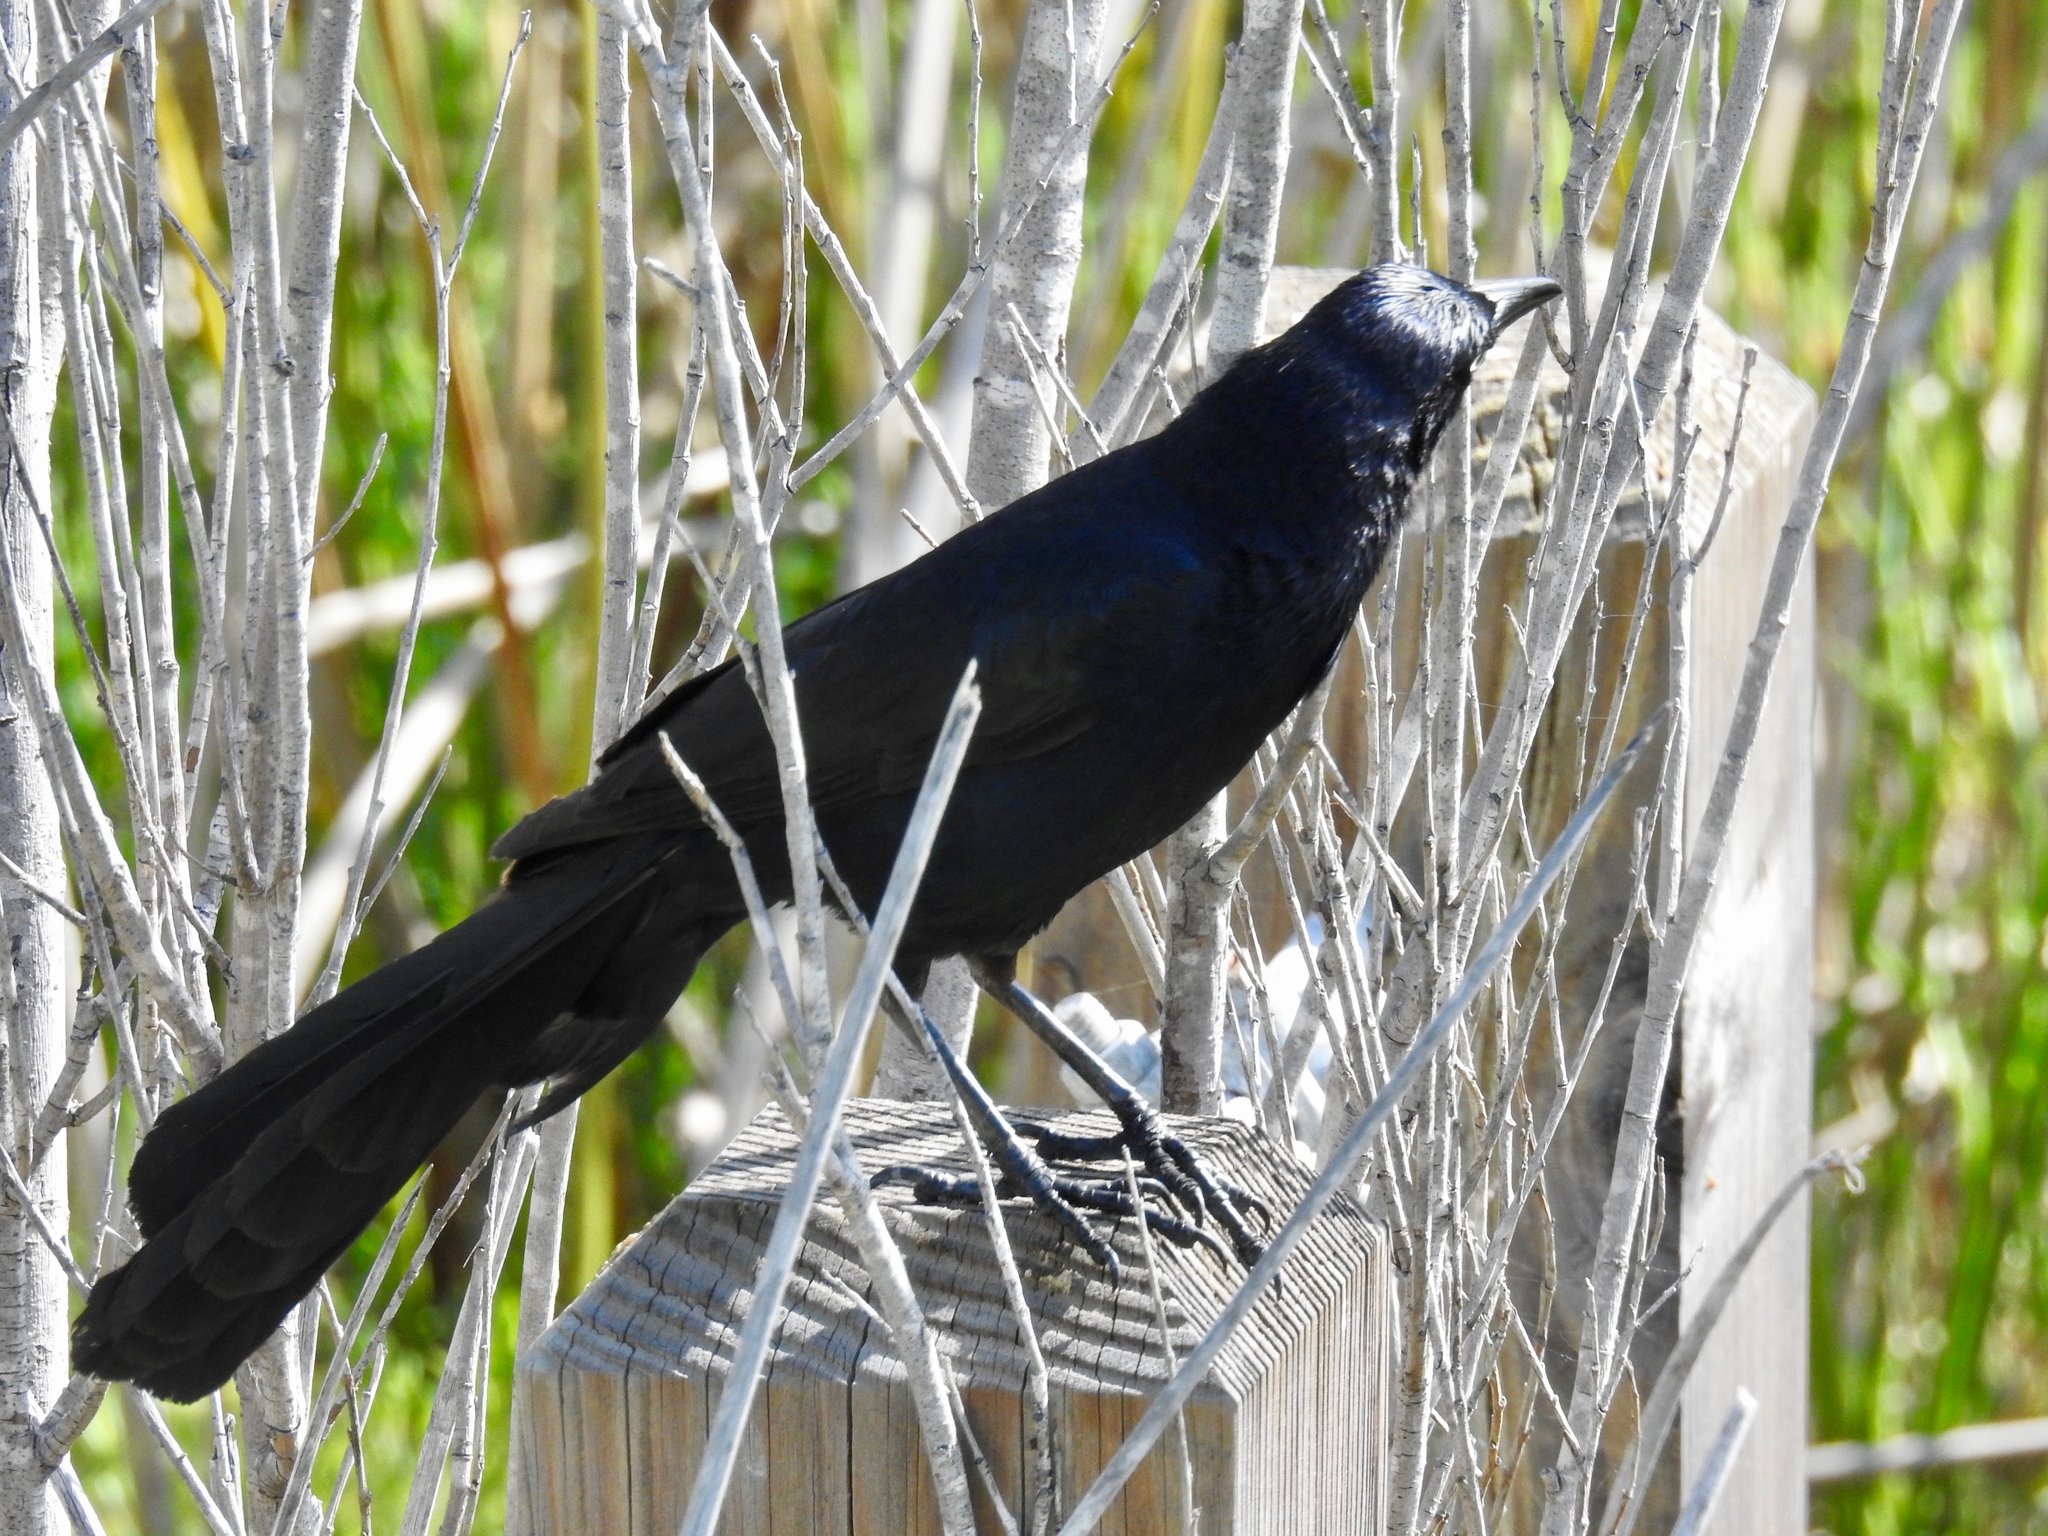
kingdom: Animalia
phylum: Chordata
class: Aves
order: Passeriformes
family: Icteridae
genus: Quiscalus
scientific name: Quiscalus mexicanus
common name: Great-tailed grackle
